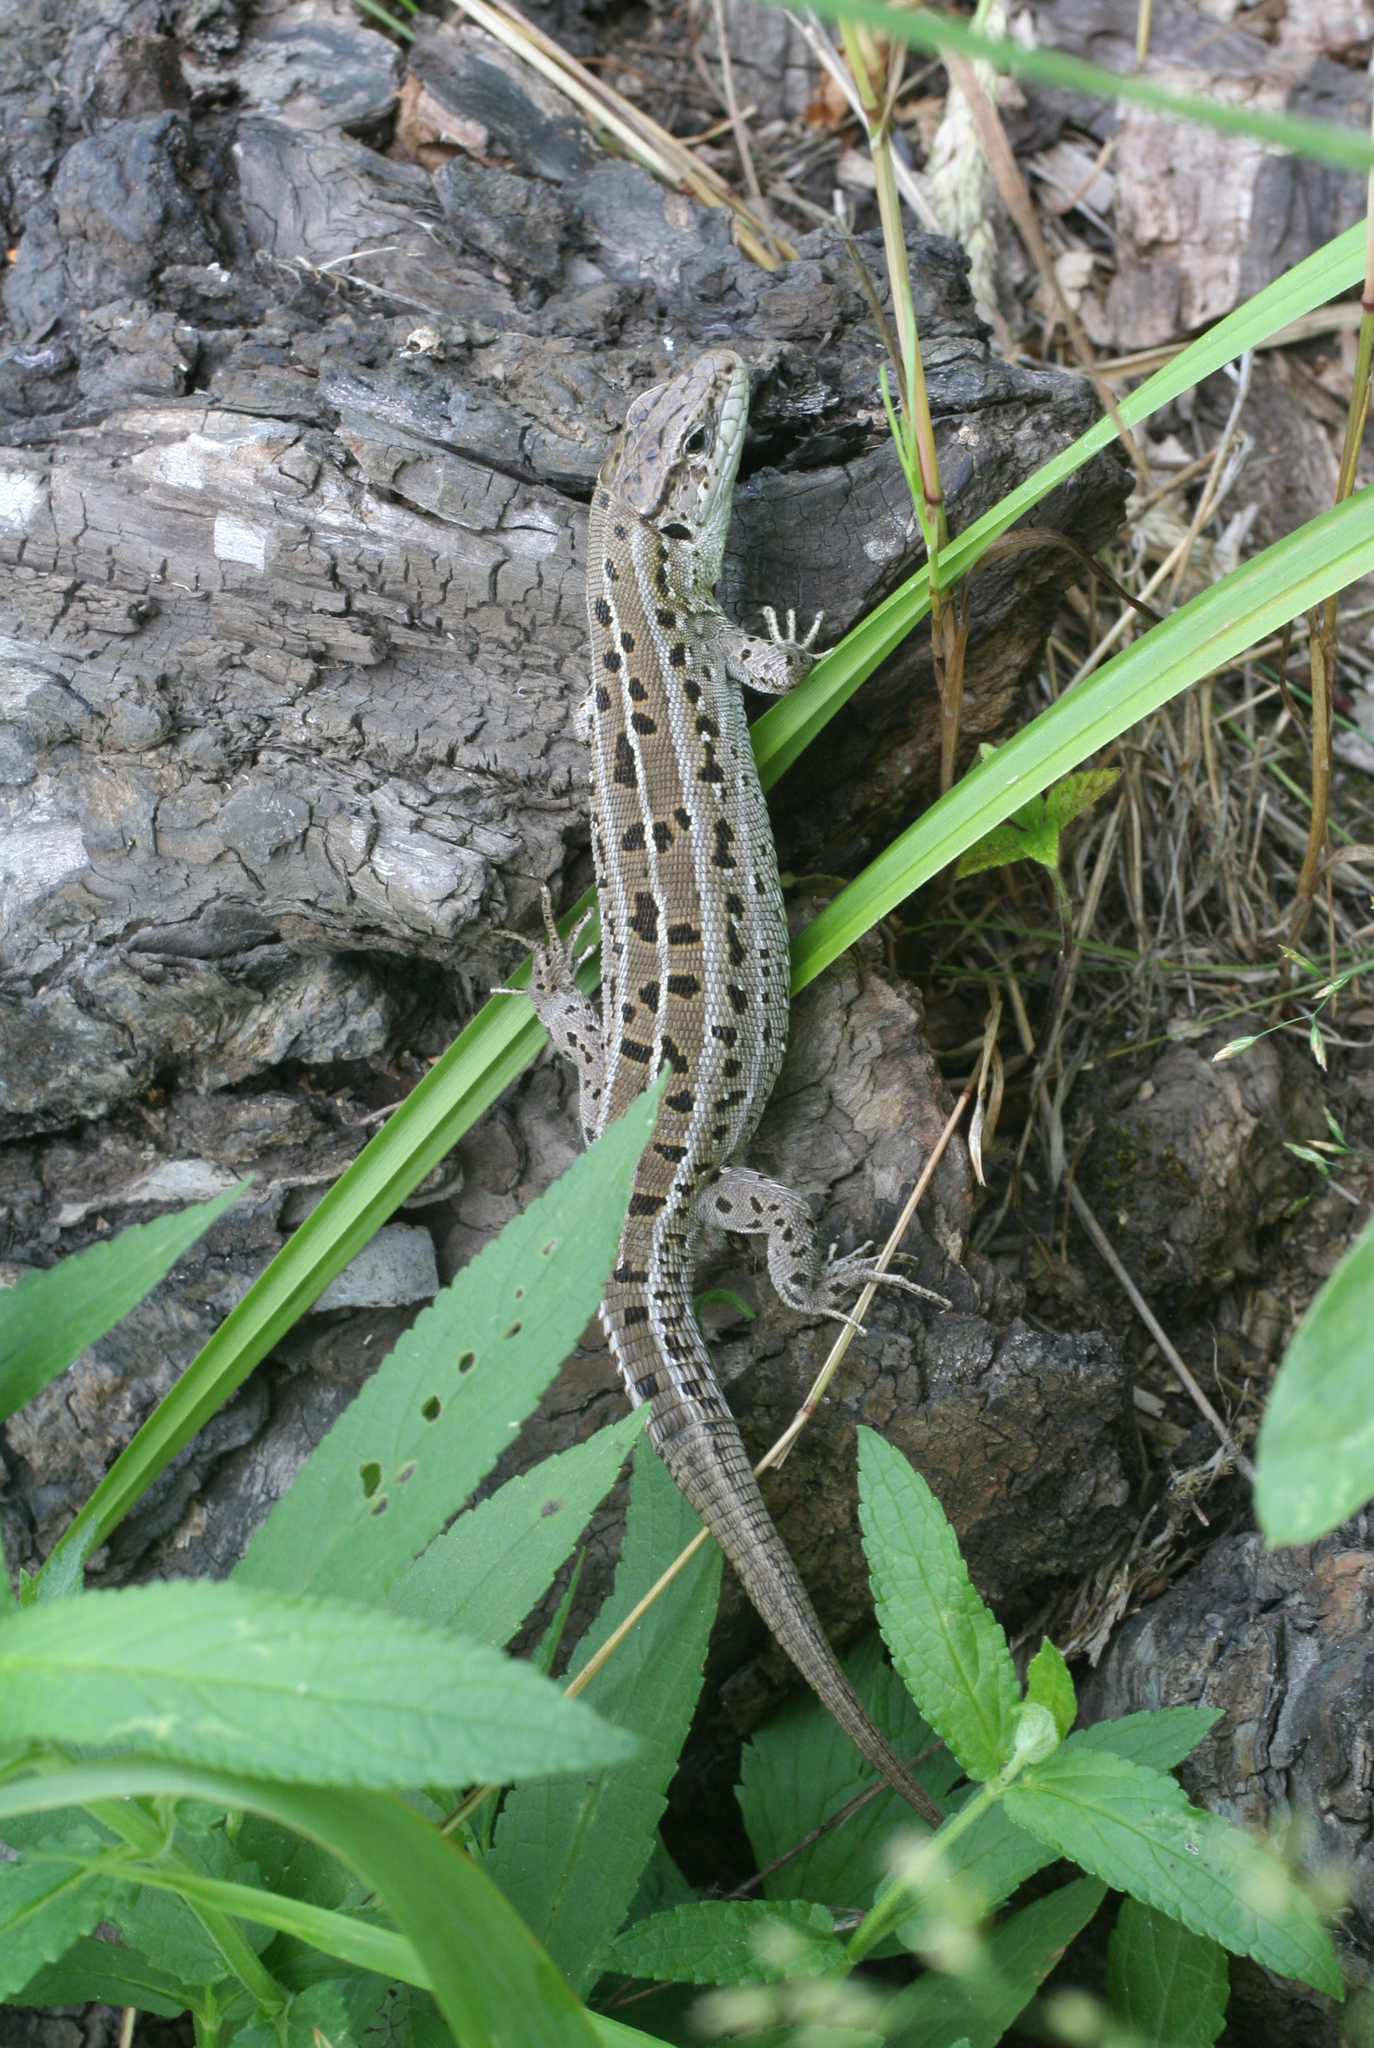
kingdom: Animalia
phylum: Chordata
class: Squamata
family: Lacertidae
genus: Lacerta
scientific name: Lacerta agilis
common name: Sand lizard
